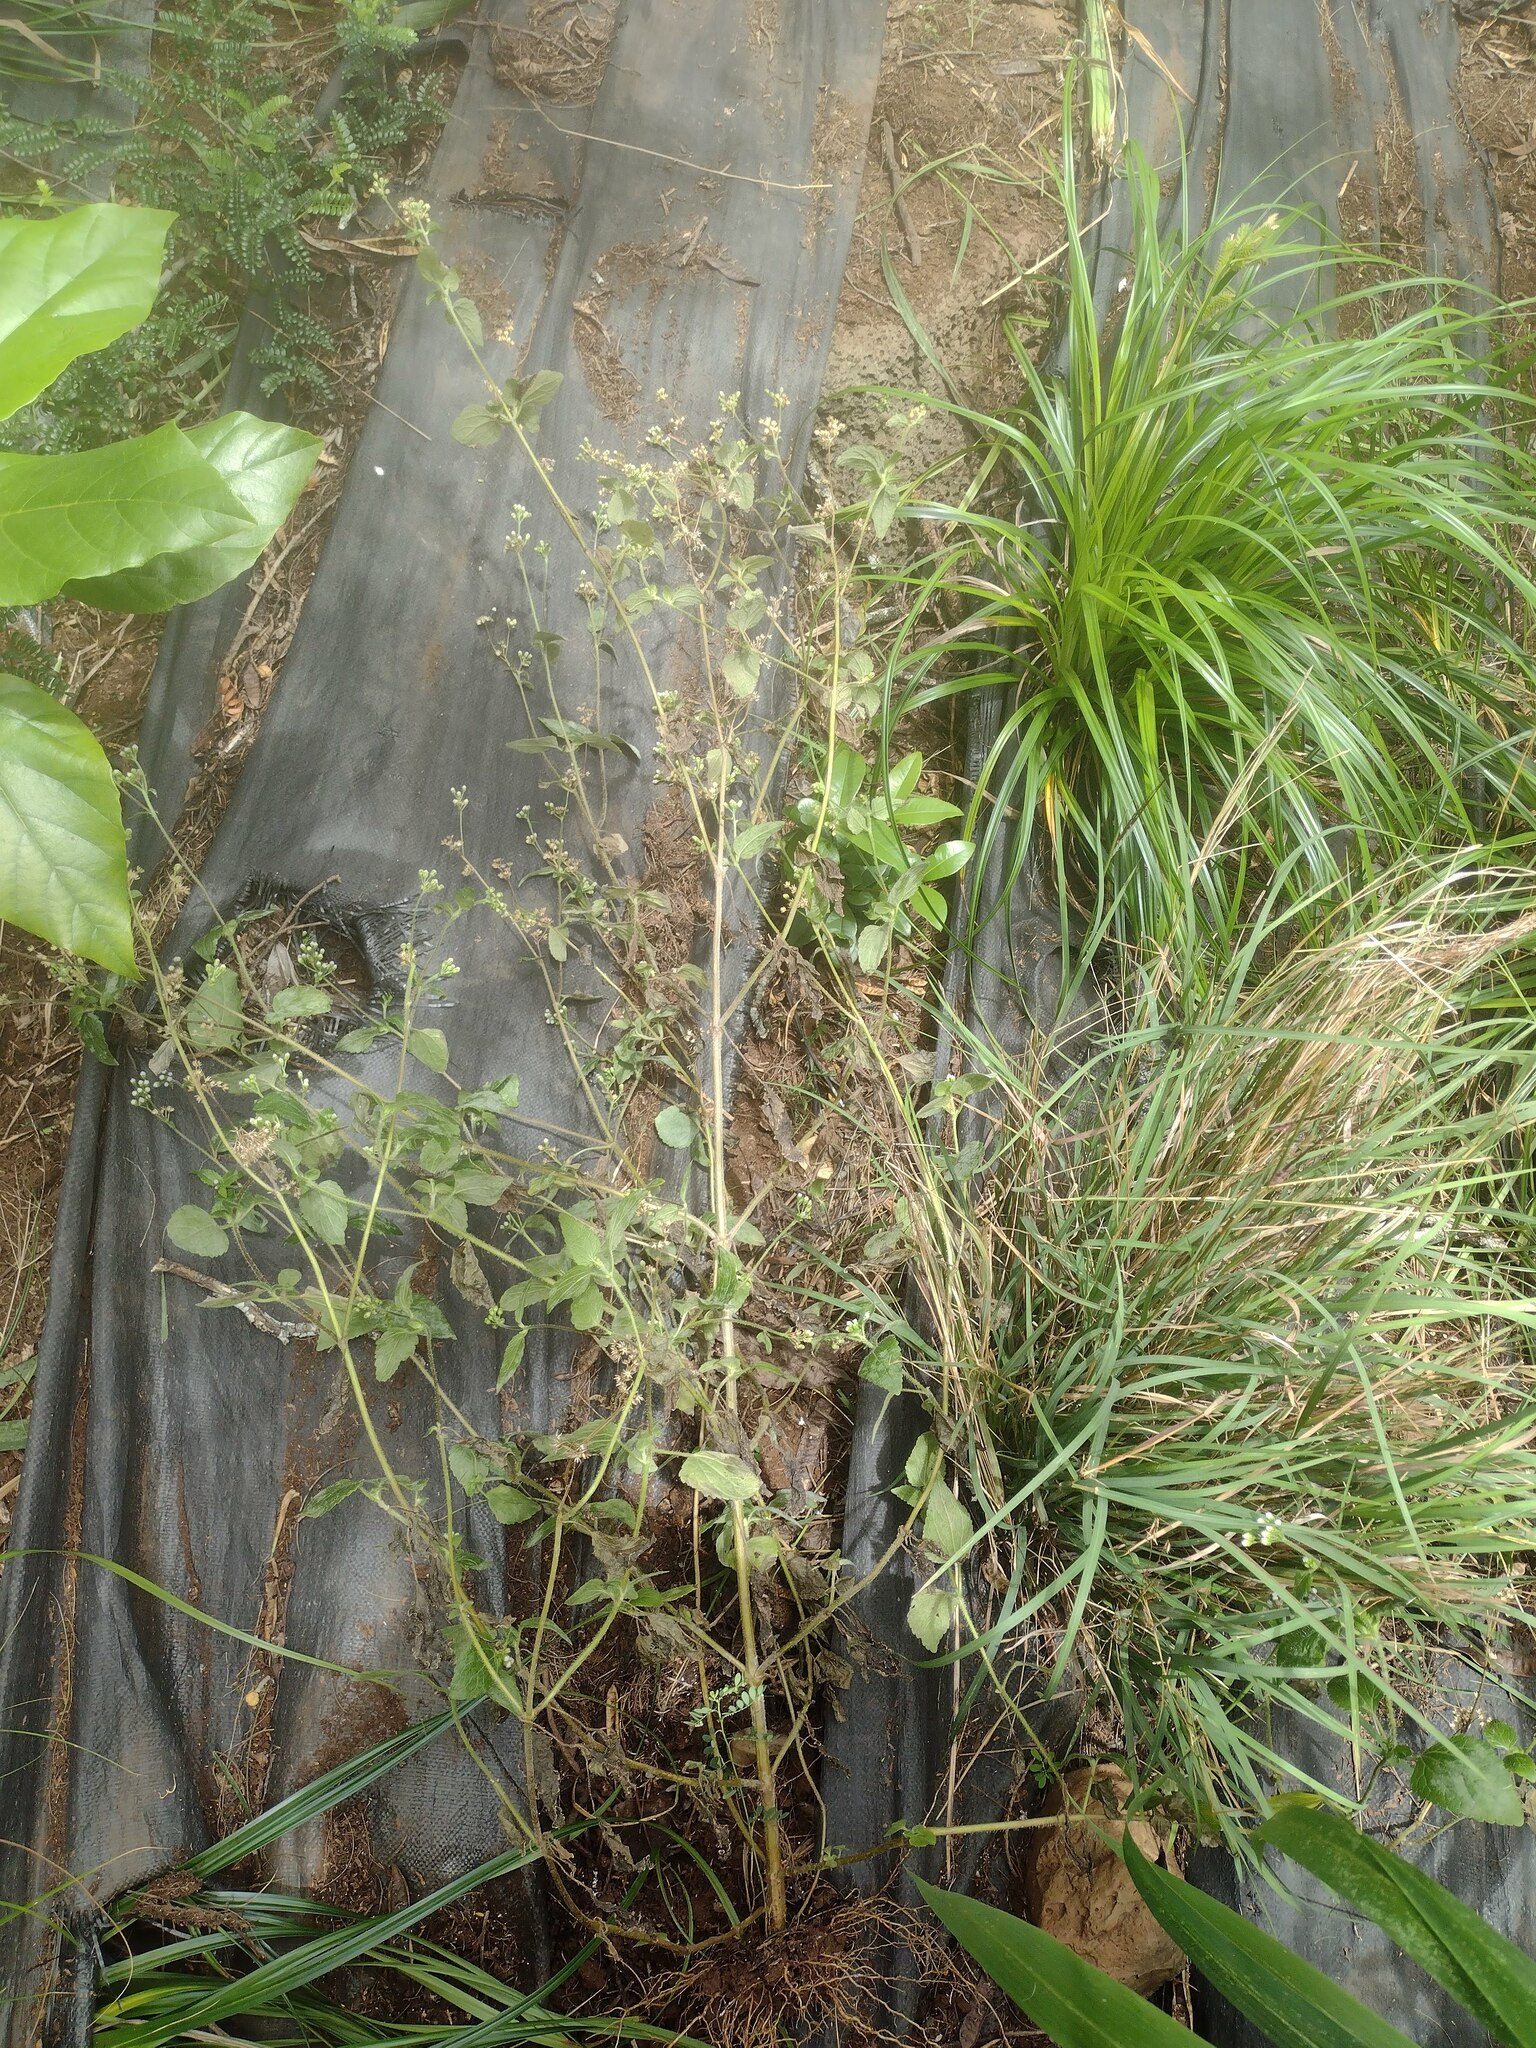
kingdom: Plantae
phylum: Tracheophyta
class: Magnoliopsida
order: Asterales
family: Asteraceae
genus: Ageratum
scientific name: Ageratum conyzoides
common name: Tropical whiteweed
